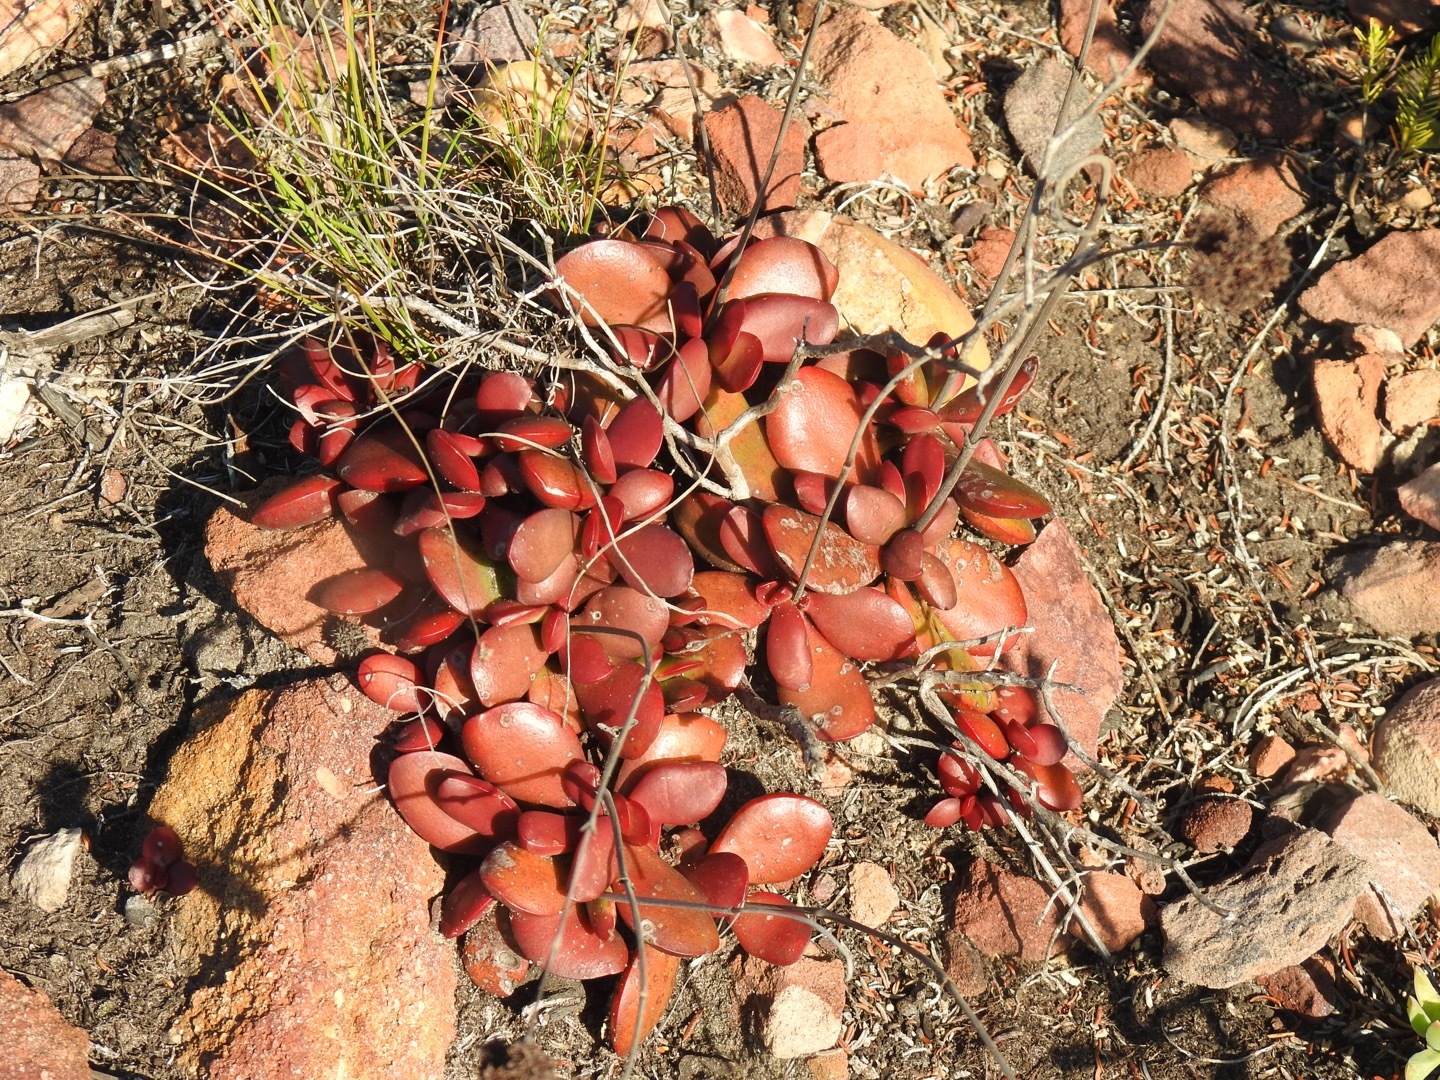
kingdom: Plantae
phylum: Tracheophyta
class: Magnoliopsida
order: Saxifragales
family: Crassulaceae
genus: Crassula
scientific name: Crassula atropurpurea
